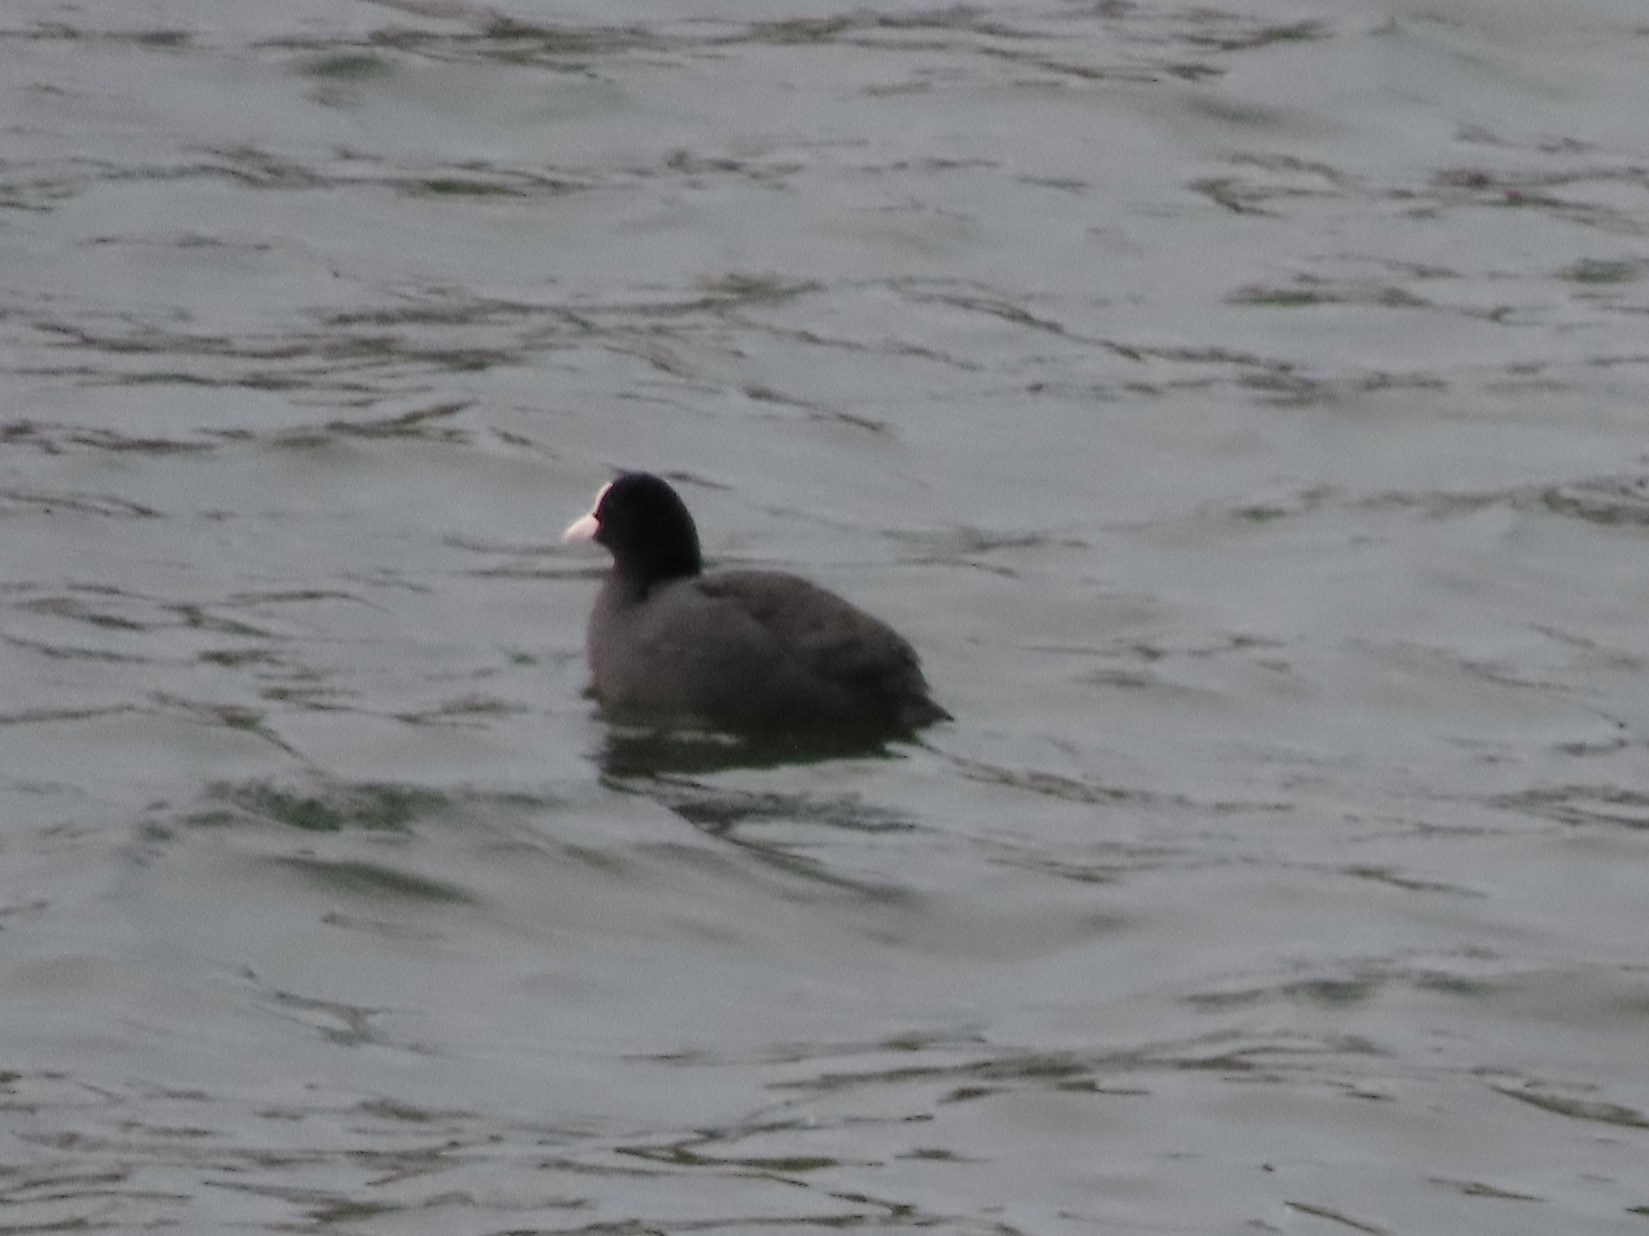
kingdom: Animalia
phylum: Chordata
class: Aves
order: Gruiformes
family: Rallidae
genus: Fulica
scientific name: Fulica atra
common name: Eurasian coot
